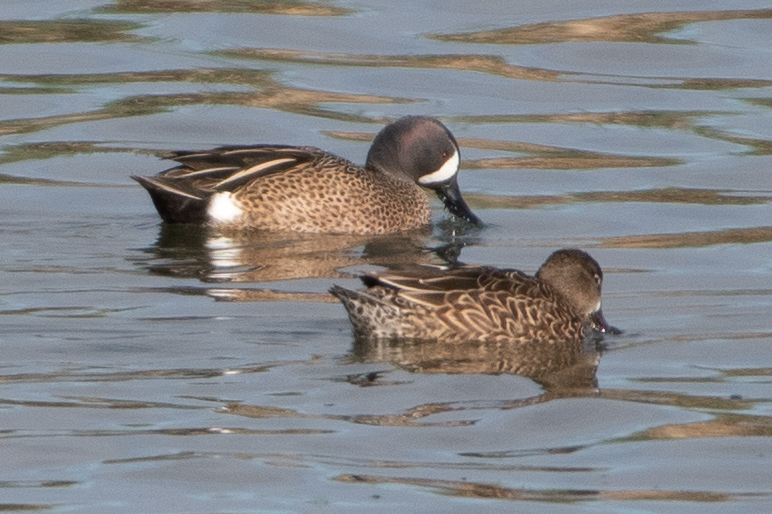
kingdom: Animalia
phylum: Chordata
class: Aves
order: Anseriformes
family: Anatidae
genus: Spatula
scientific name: Spatula discors
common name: Blue-winged teal
